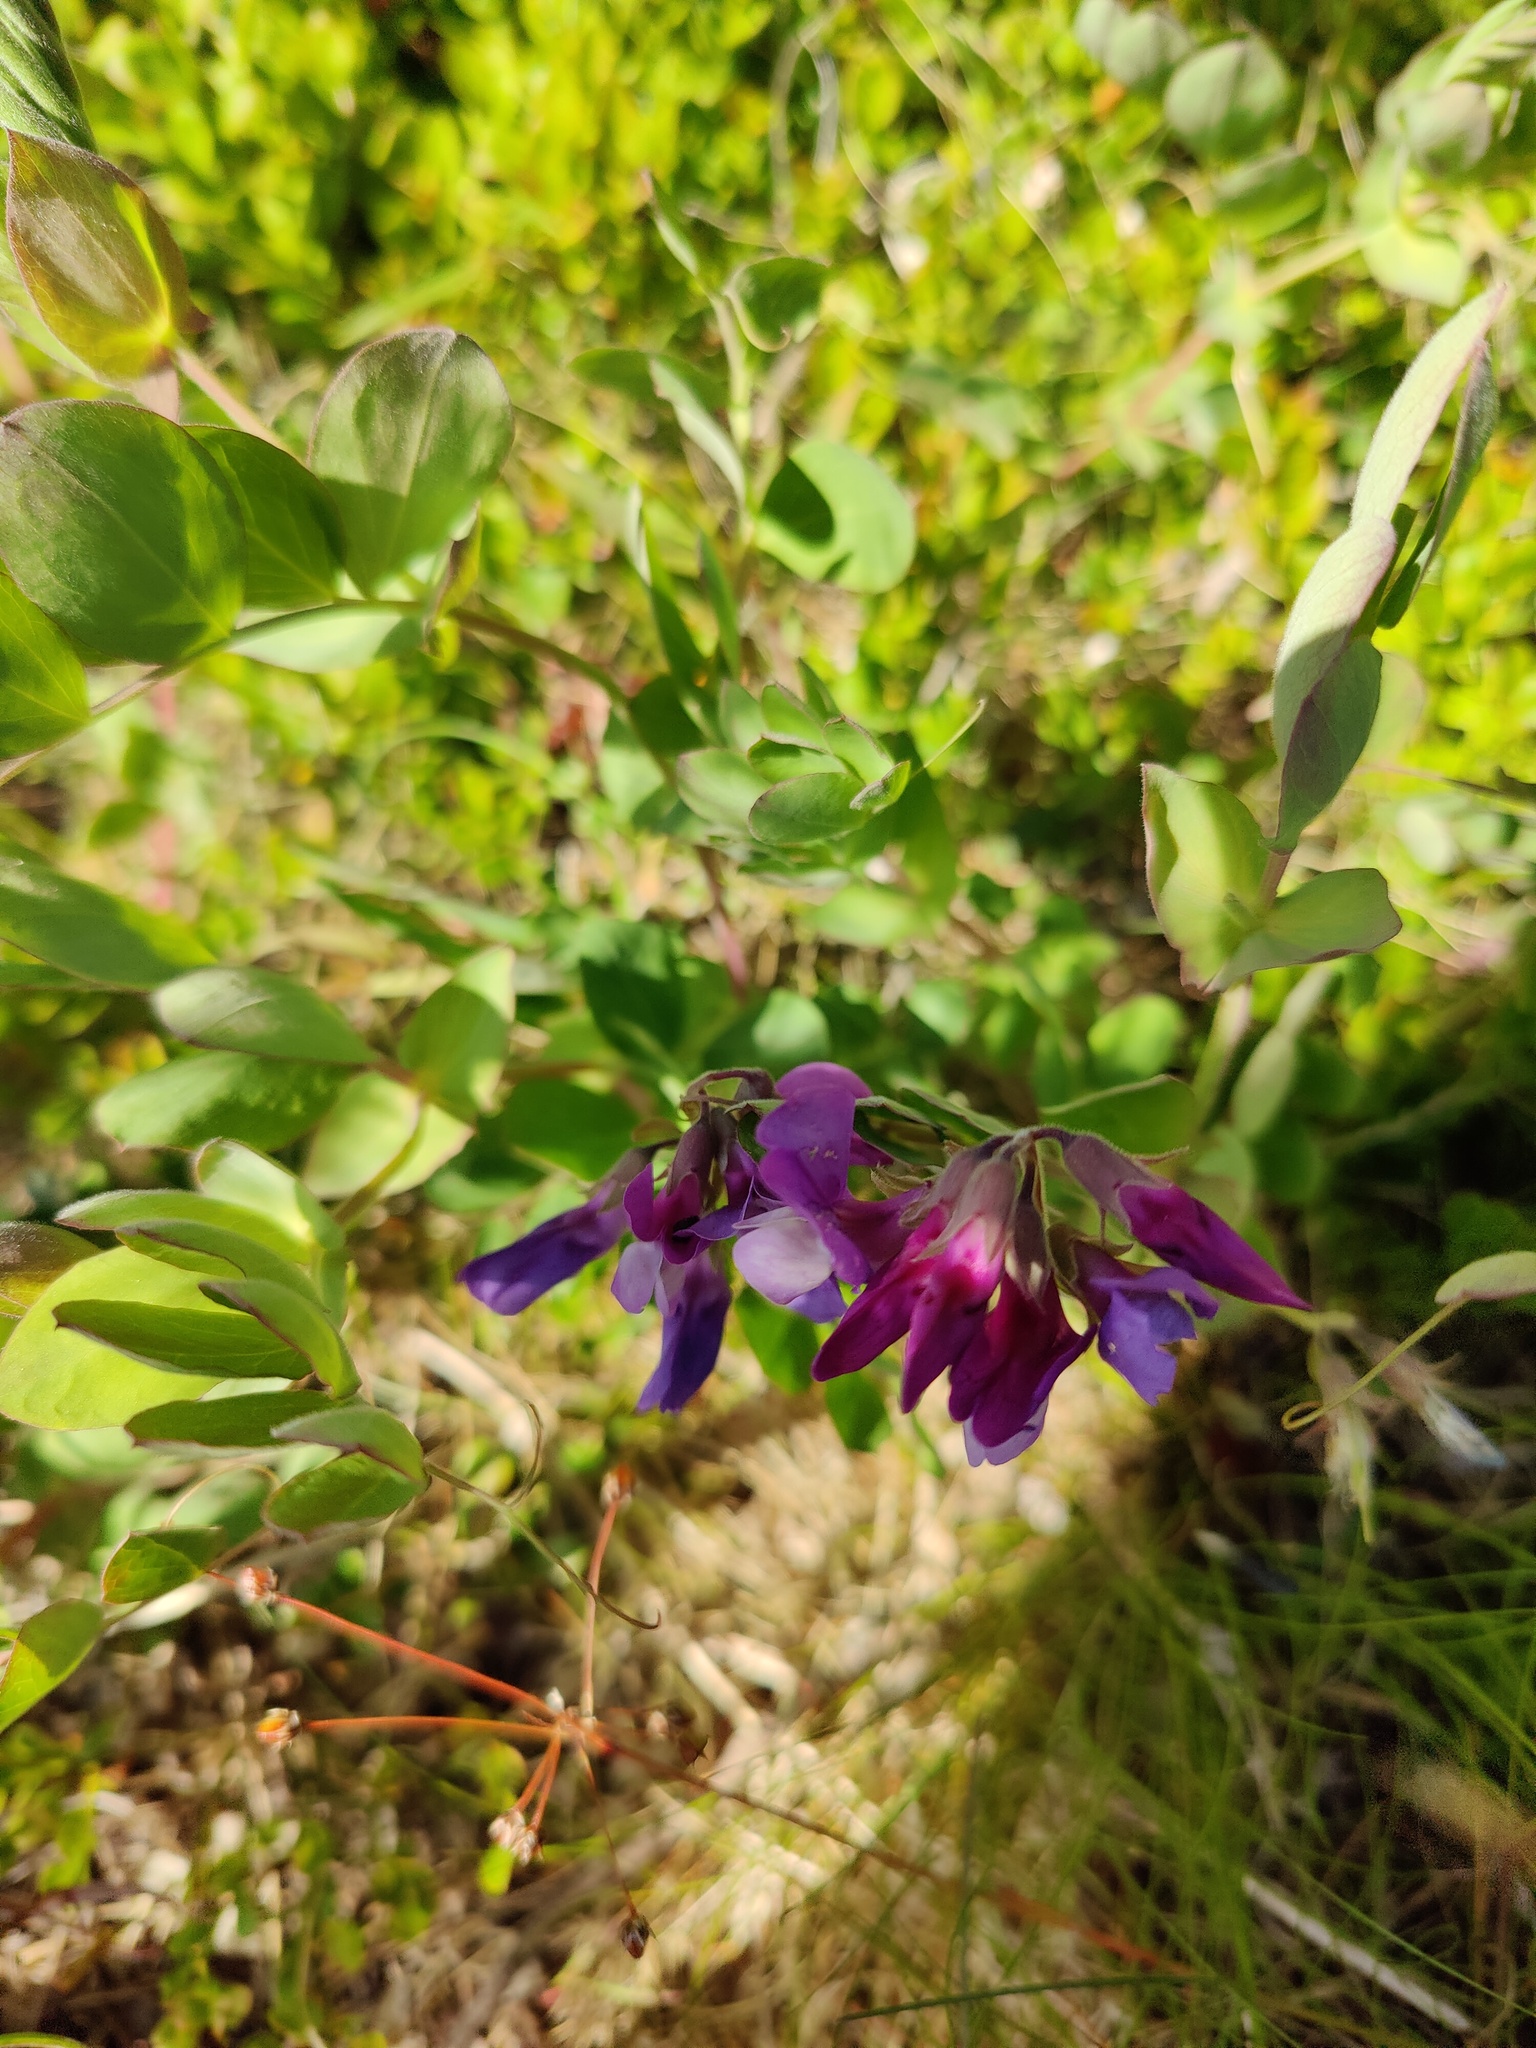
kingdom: Plantae
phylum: Tracheophyta
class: Magnoliopsida
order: Fabales
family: Fabaceae
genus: Lathyrus
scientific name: Lathyrus japonicus
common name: Sea pea
